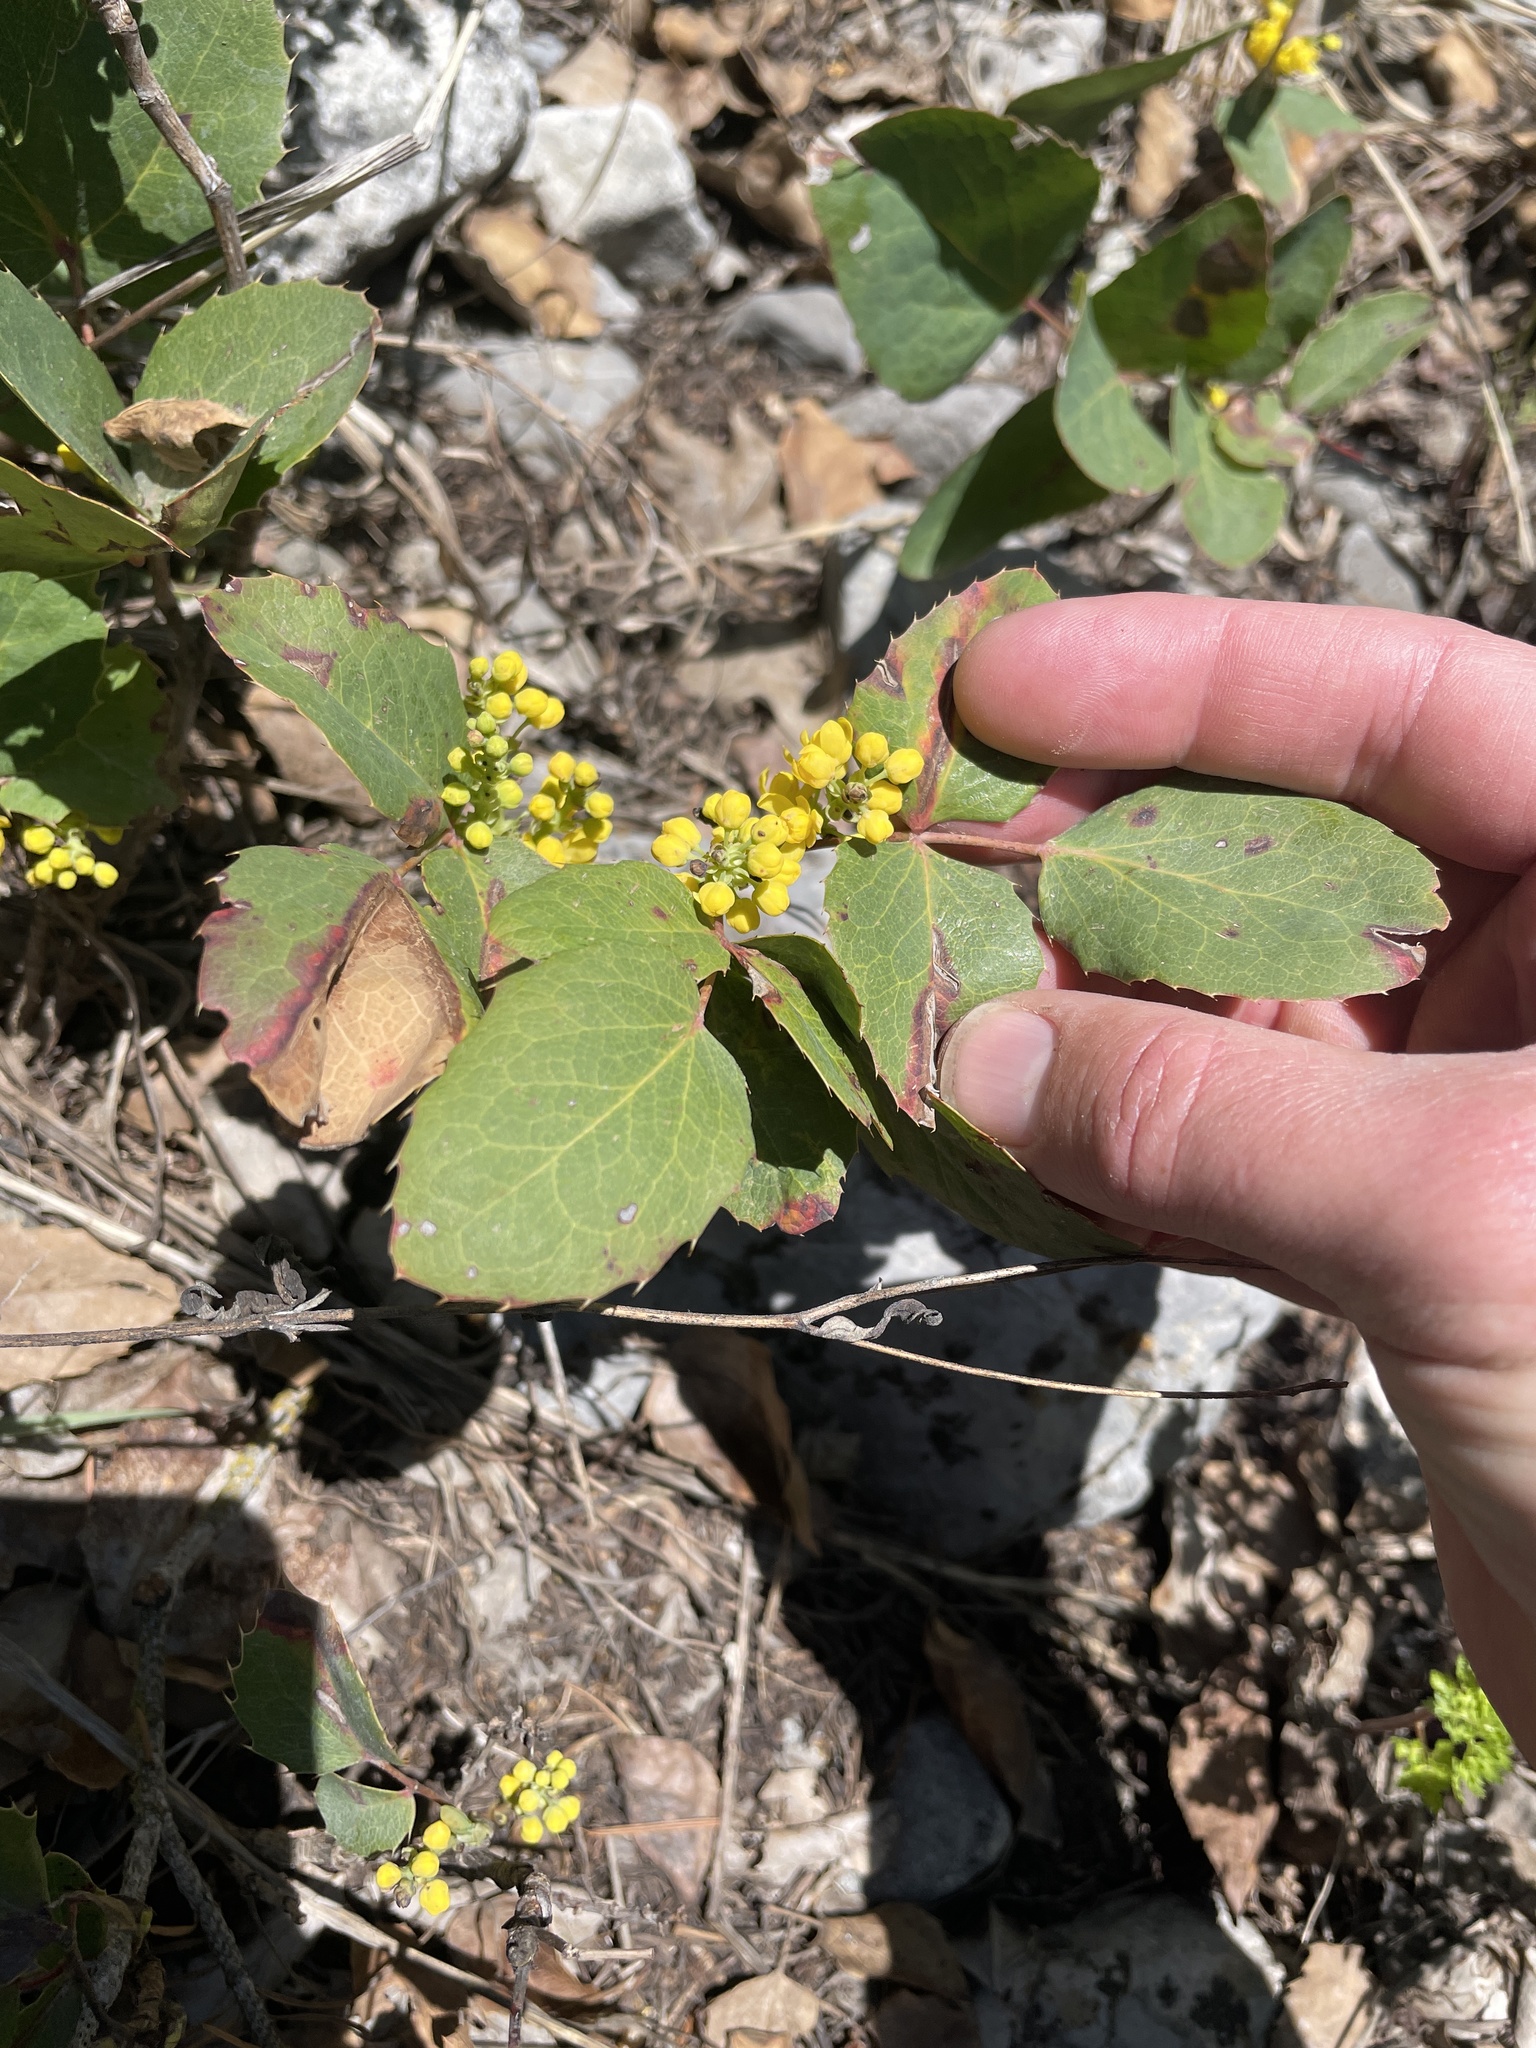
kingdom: Plantae
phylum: Tracheophyta
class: Magnoliopsida
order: Ranunculales
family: Berberidaceae
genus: Mahonia
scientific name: Mahonia repens
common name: Creeping oregon-grape
